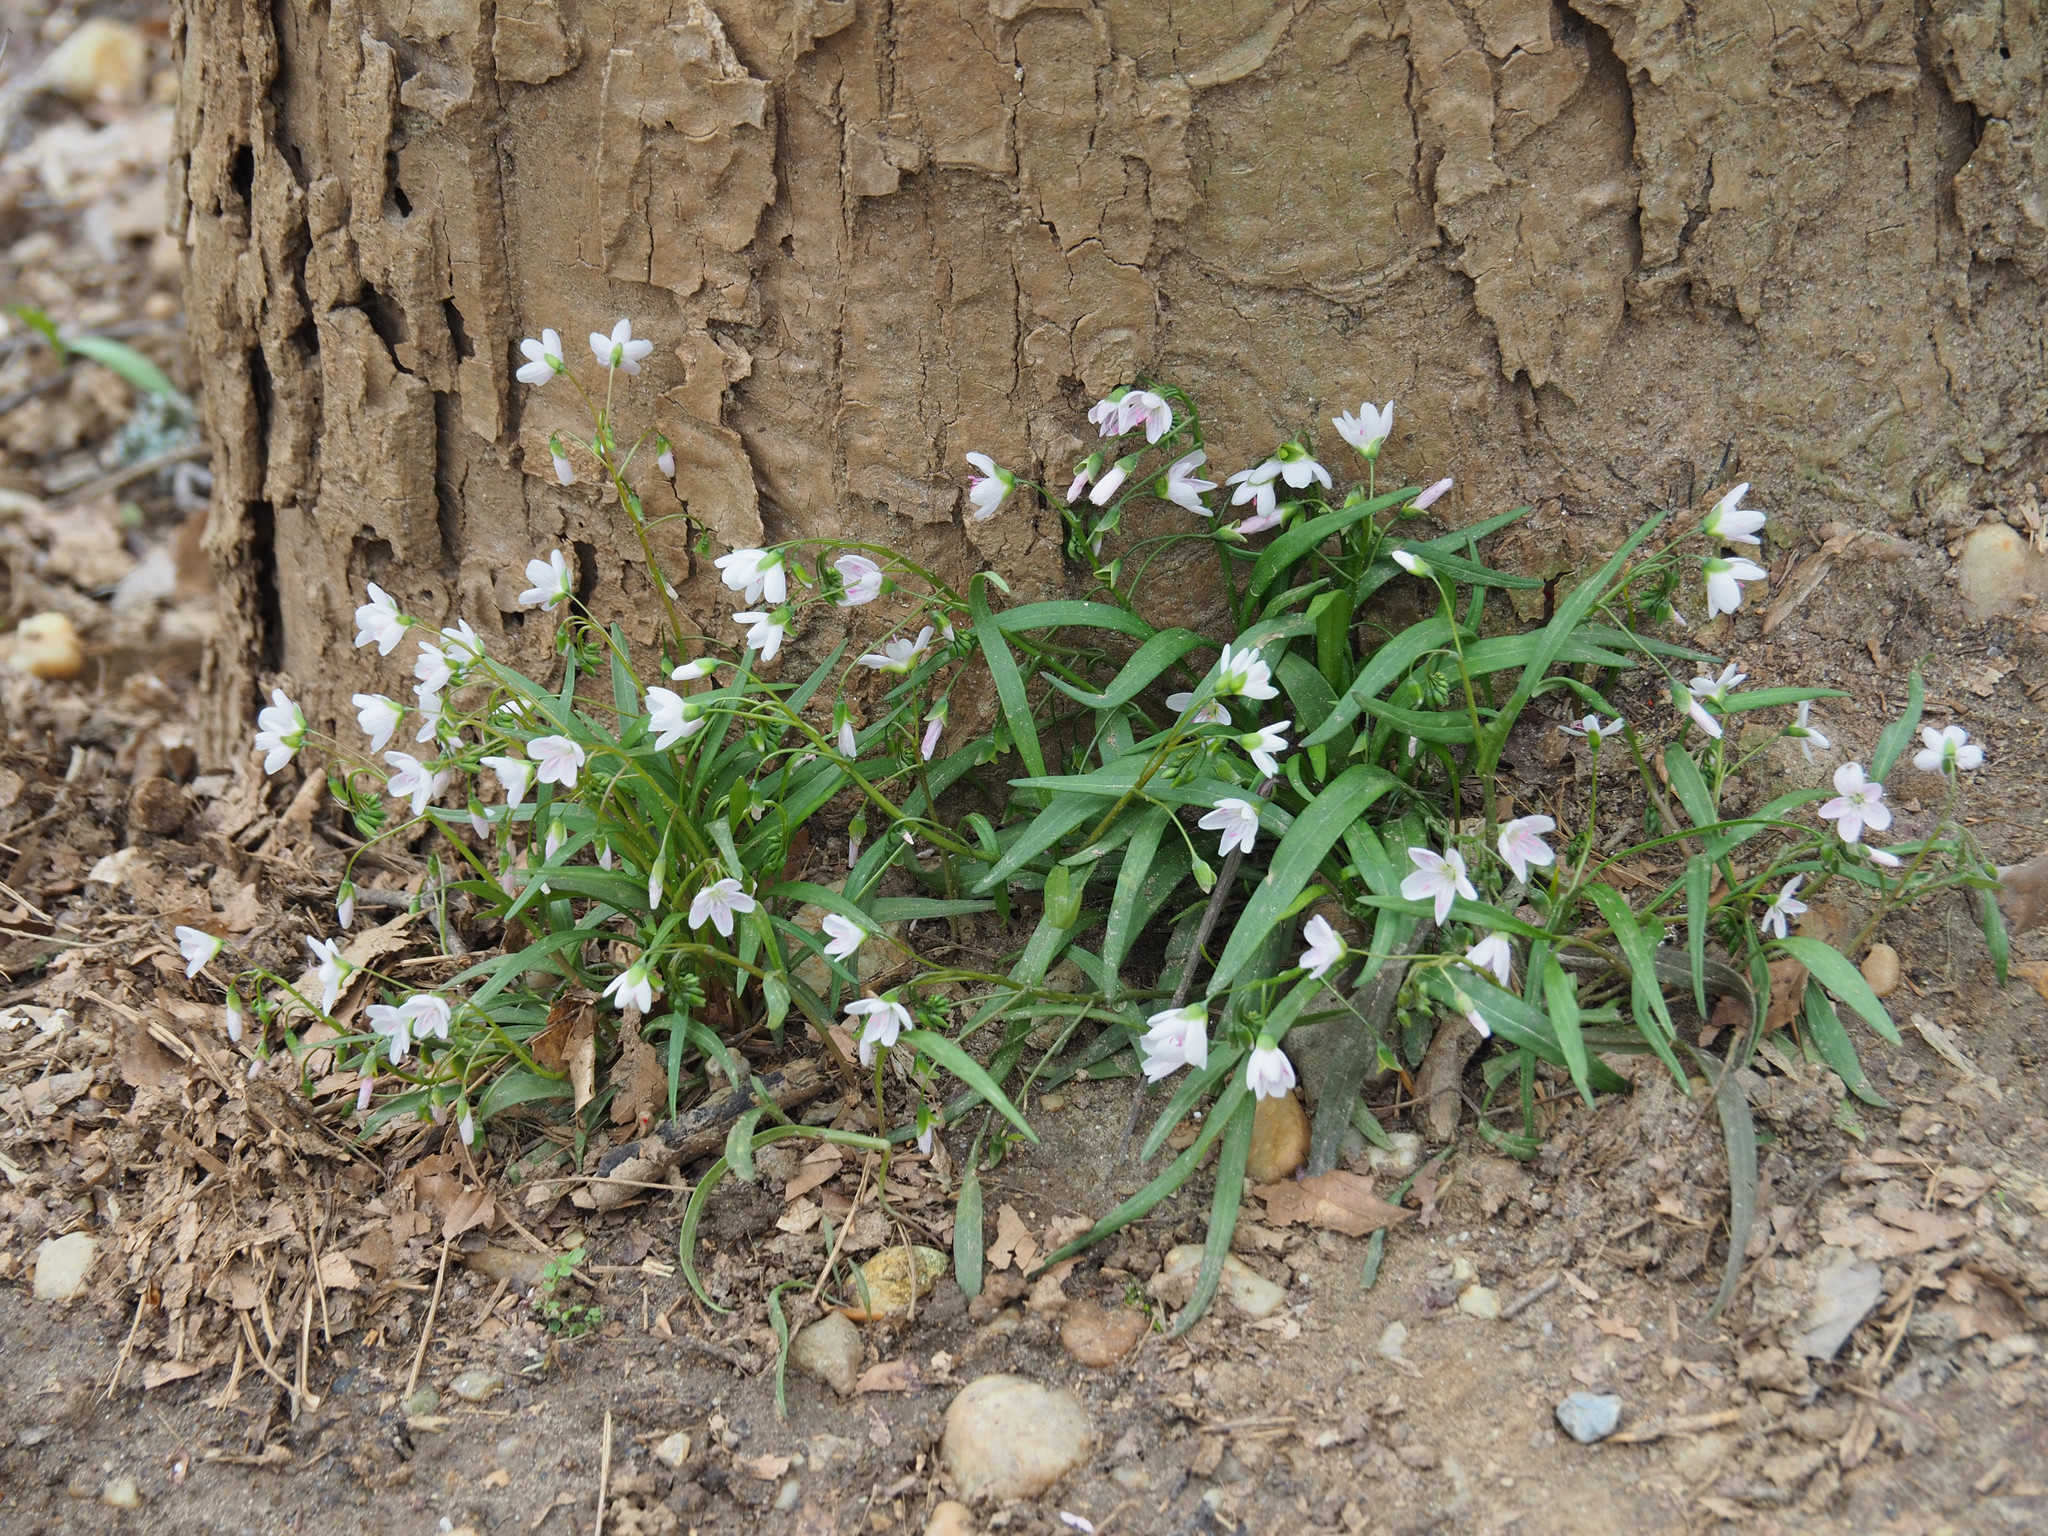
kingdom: Plantae
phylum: Tracheophyta
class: Magnoliopsida
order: Caryophyllales
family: Montiaceae
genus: Claytonia
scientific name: Claytonia virginica
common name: Virginia springbeauty
